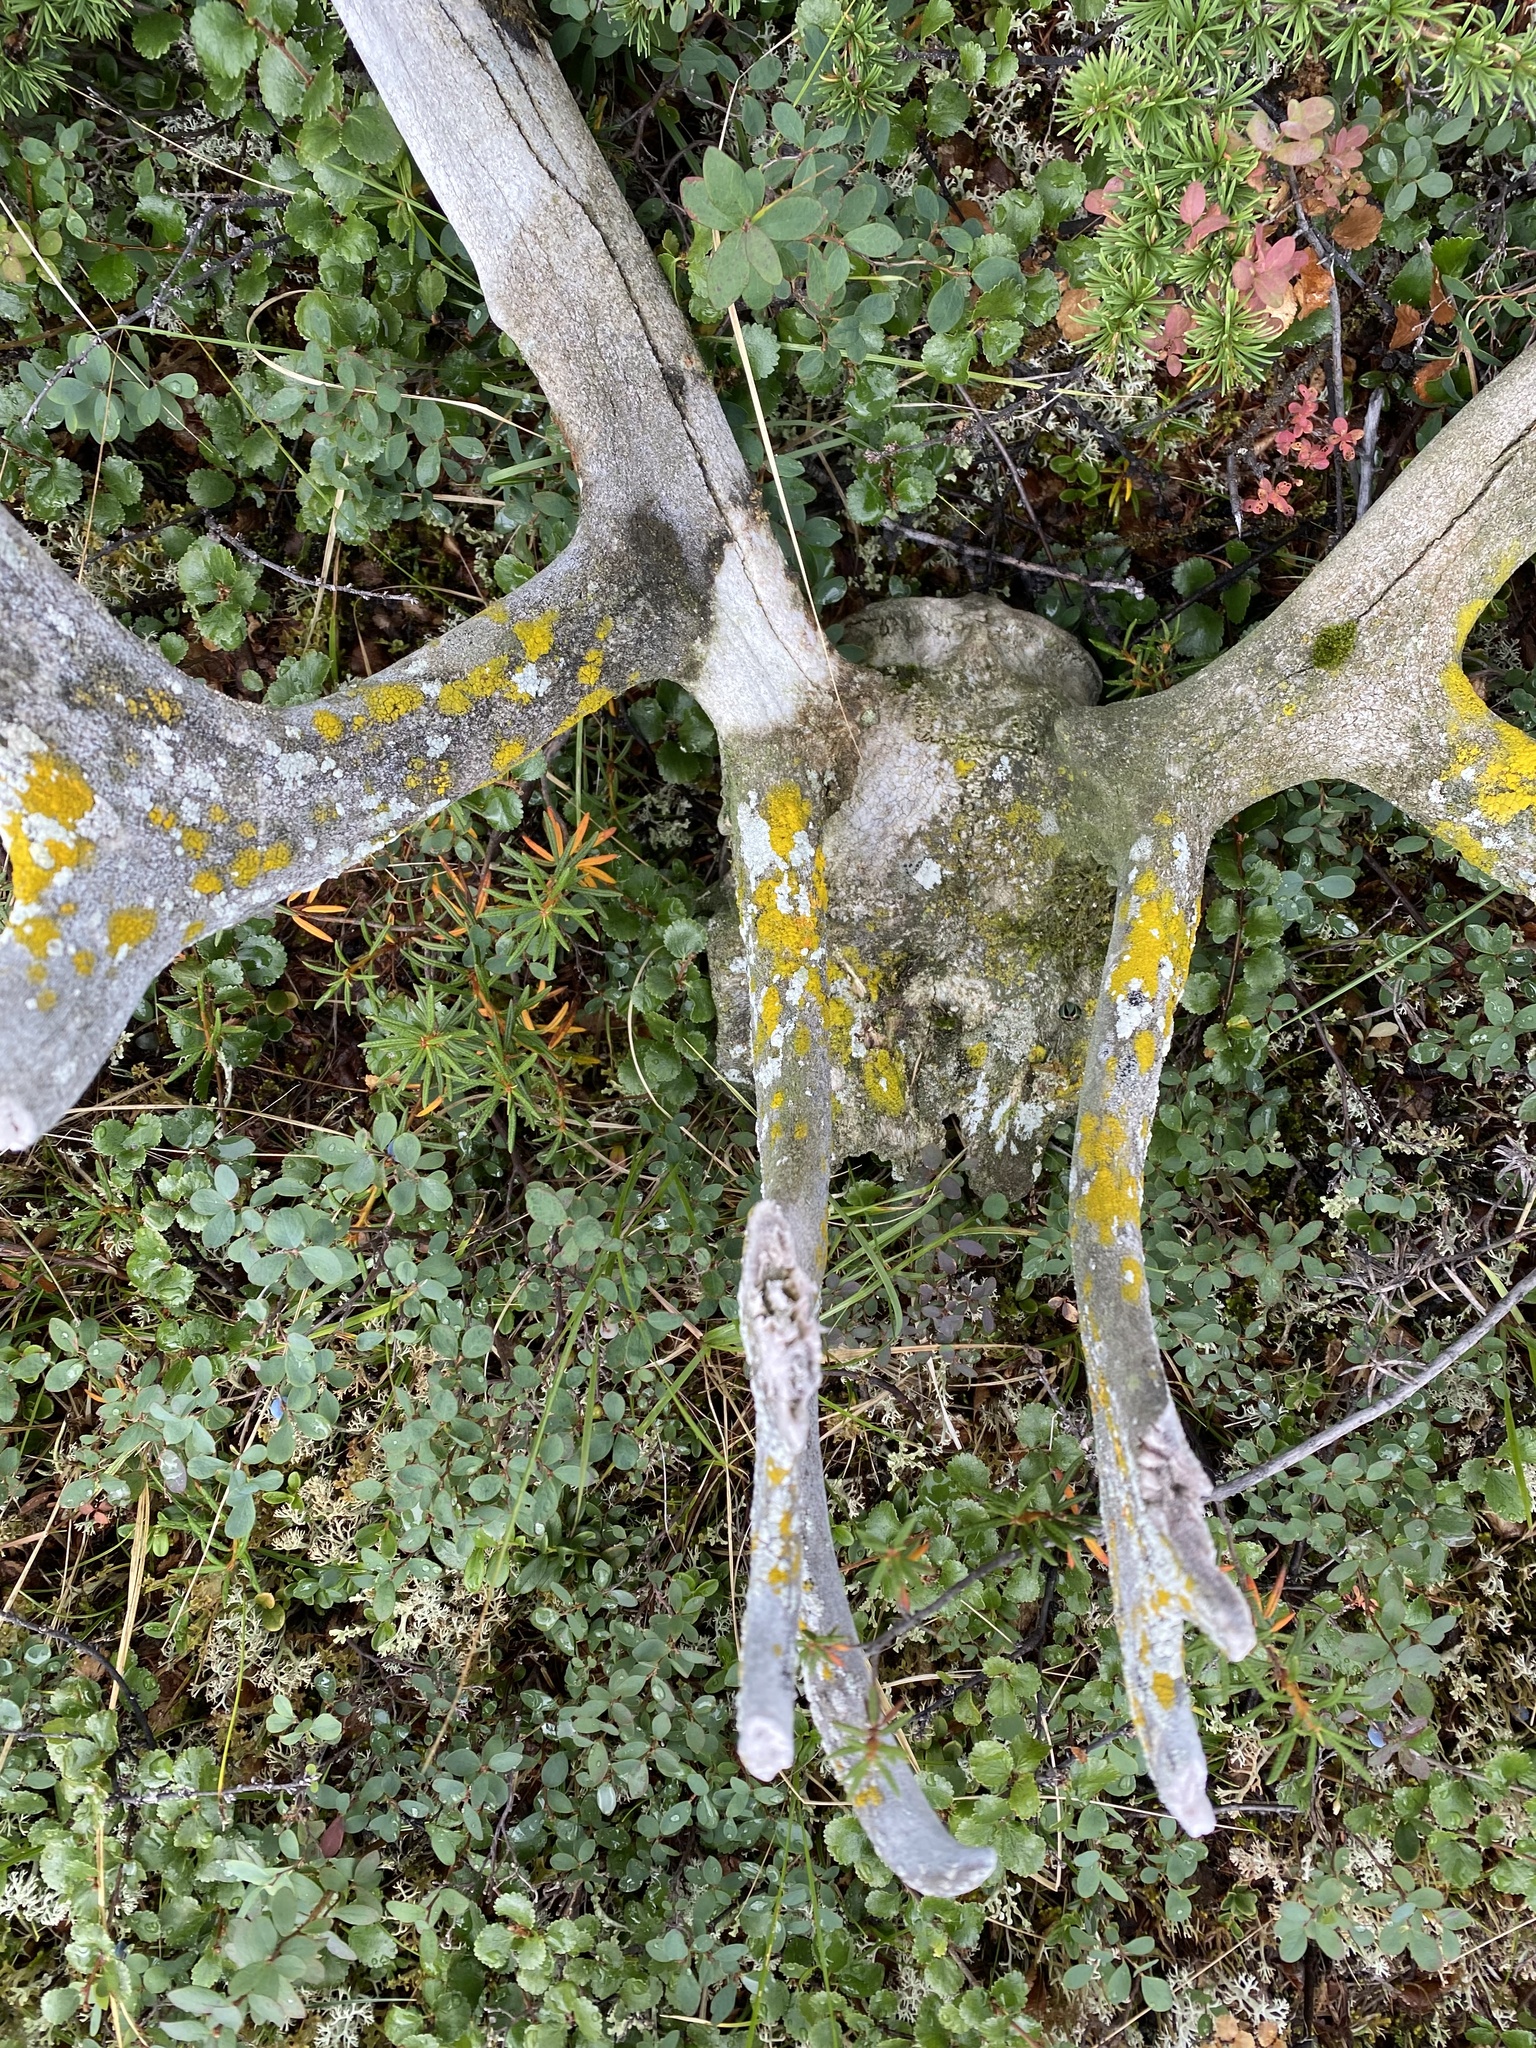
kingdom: Animalia
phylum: Chordata
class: Mammalia
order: Artiodactyla
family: Cervidae
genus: Rangifer
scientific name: Rangifer tarandus
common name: Reindeer
